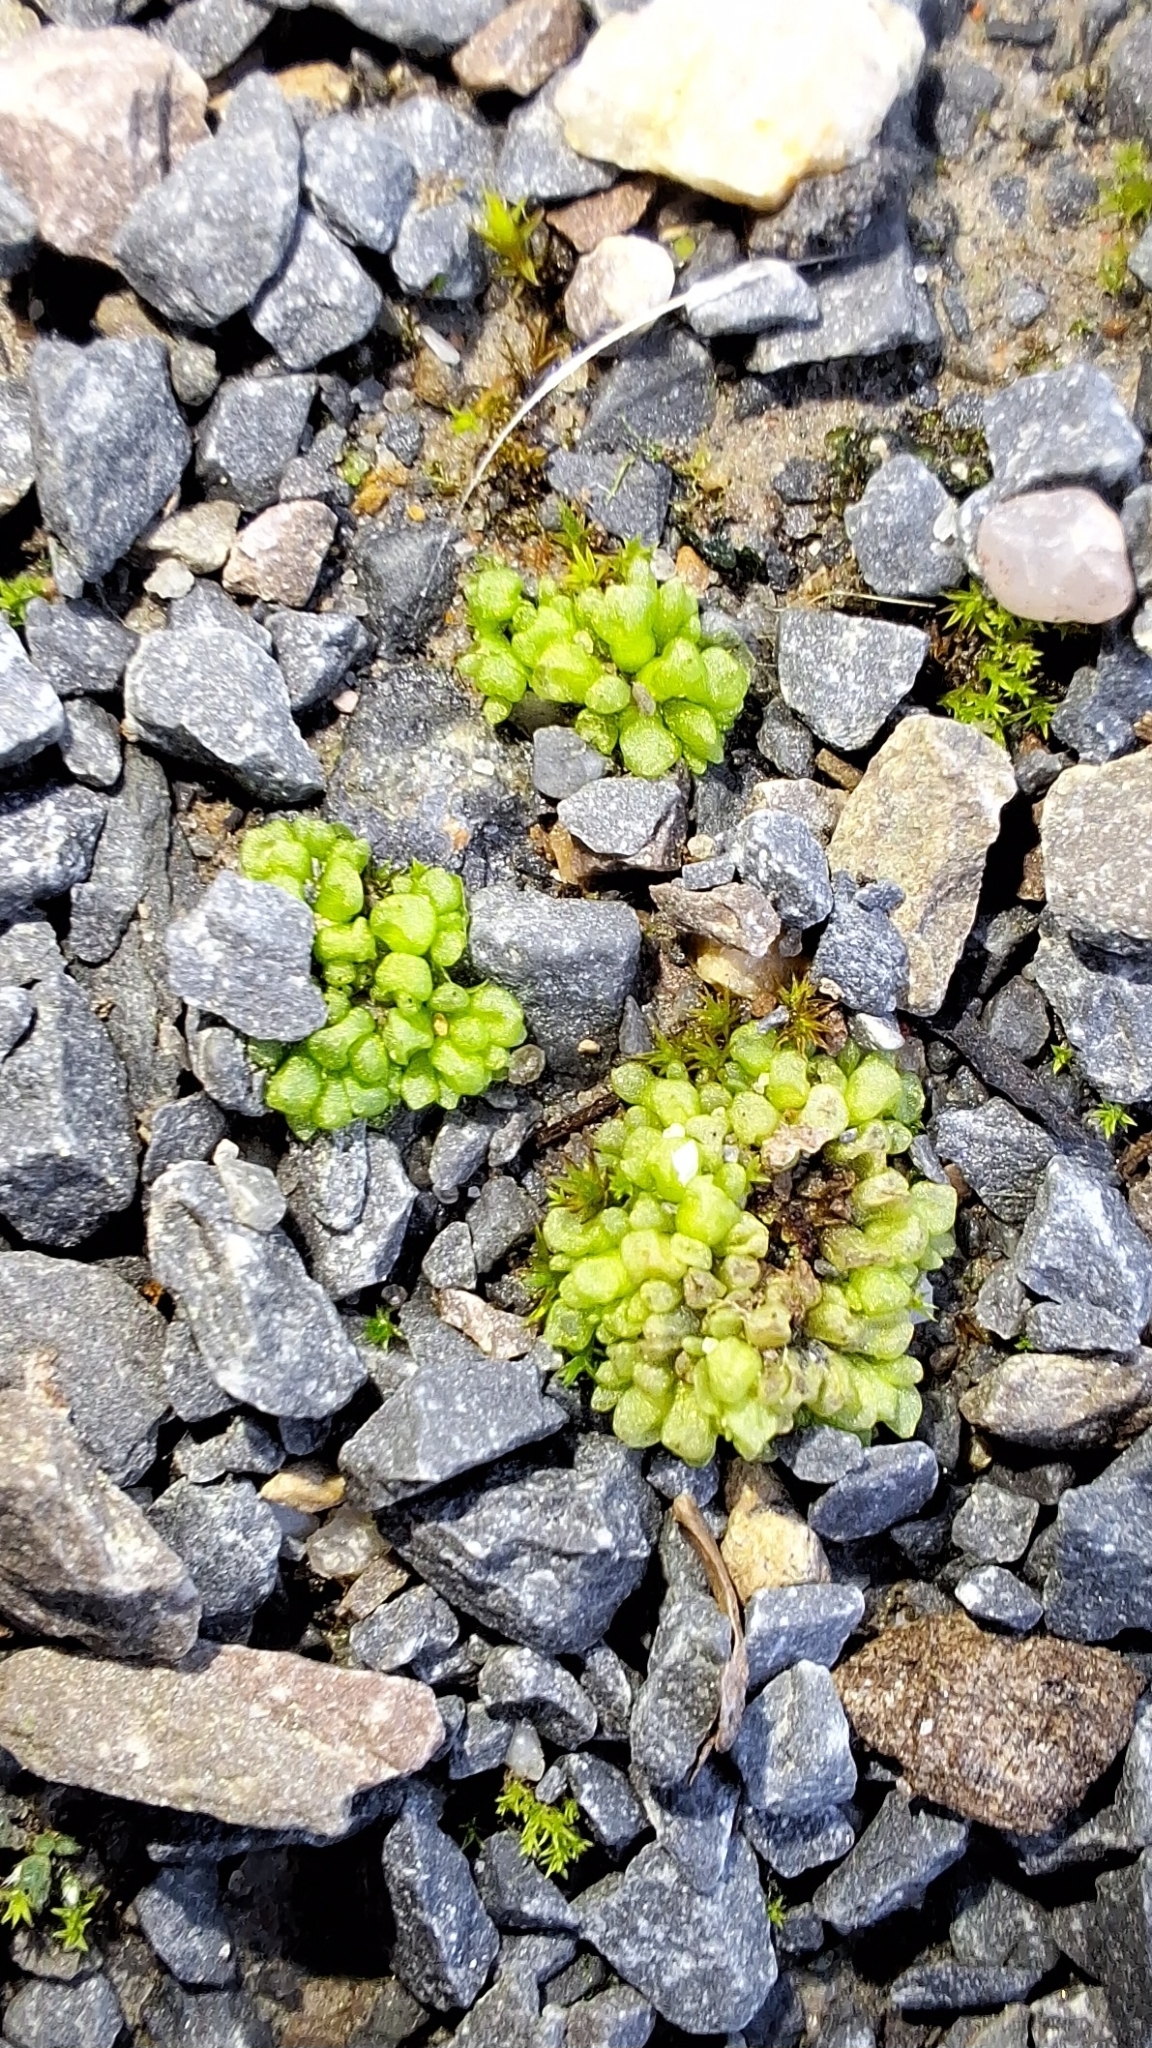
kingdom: Plantae
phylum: Marchantiophyta
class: Marchantiopsida
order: Sphaerocarpales
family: Sphaerocarpaceae
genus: Sphaerocarpos
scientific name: Sphaerocarpos texanus
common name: Texas balloonwort
